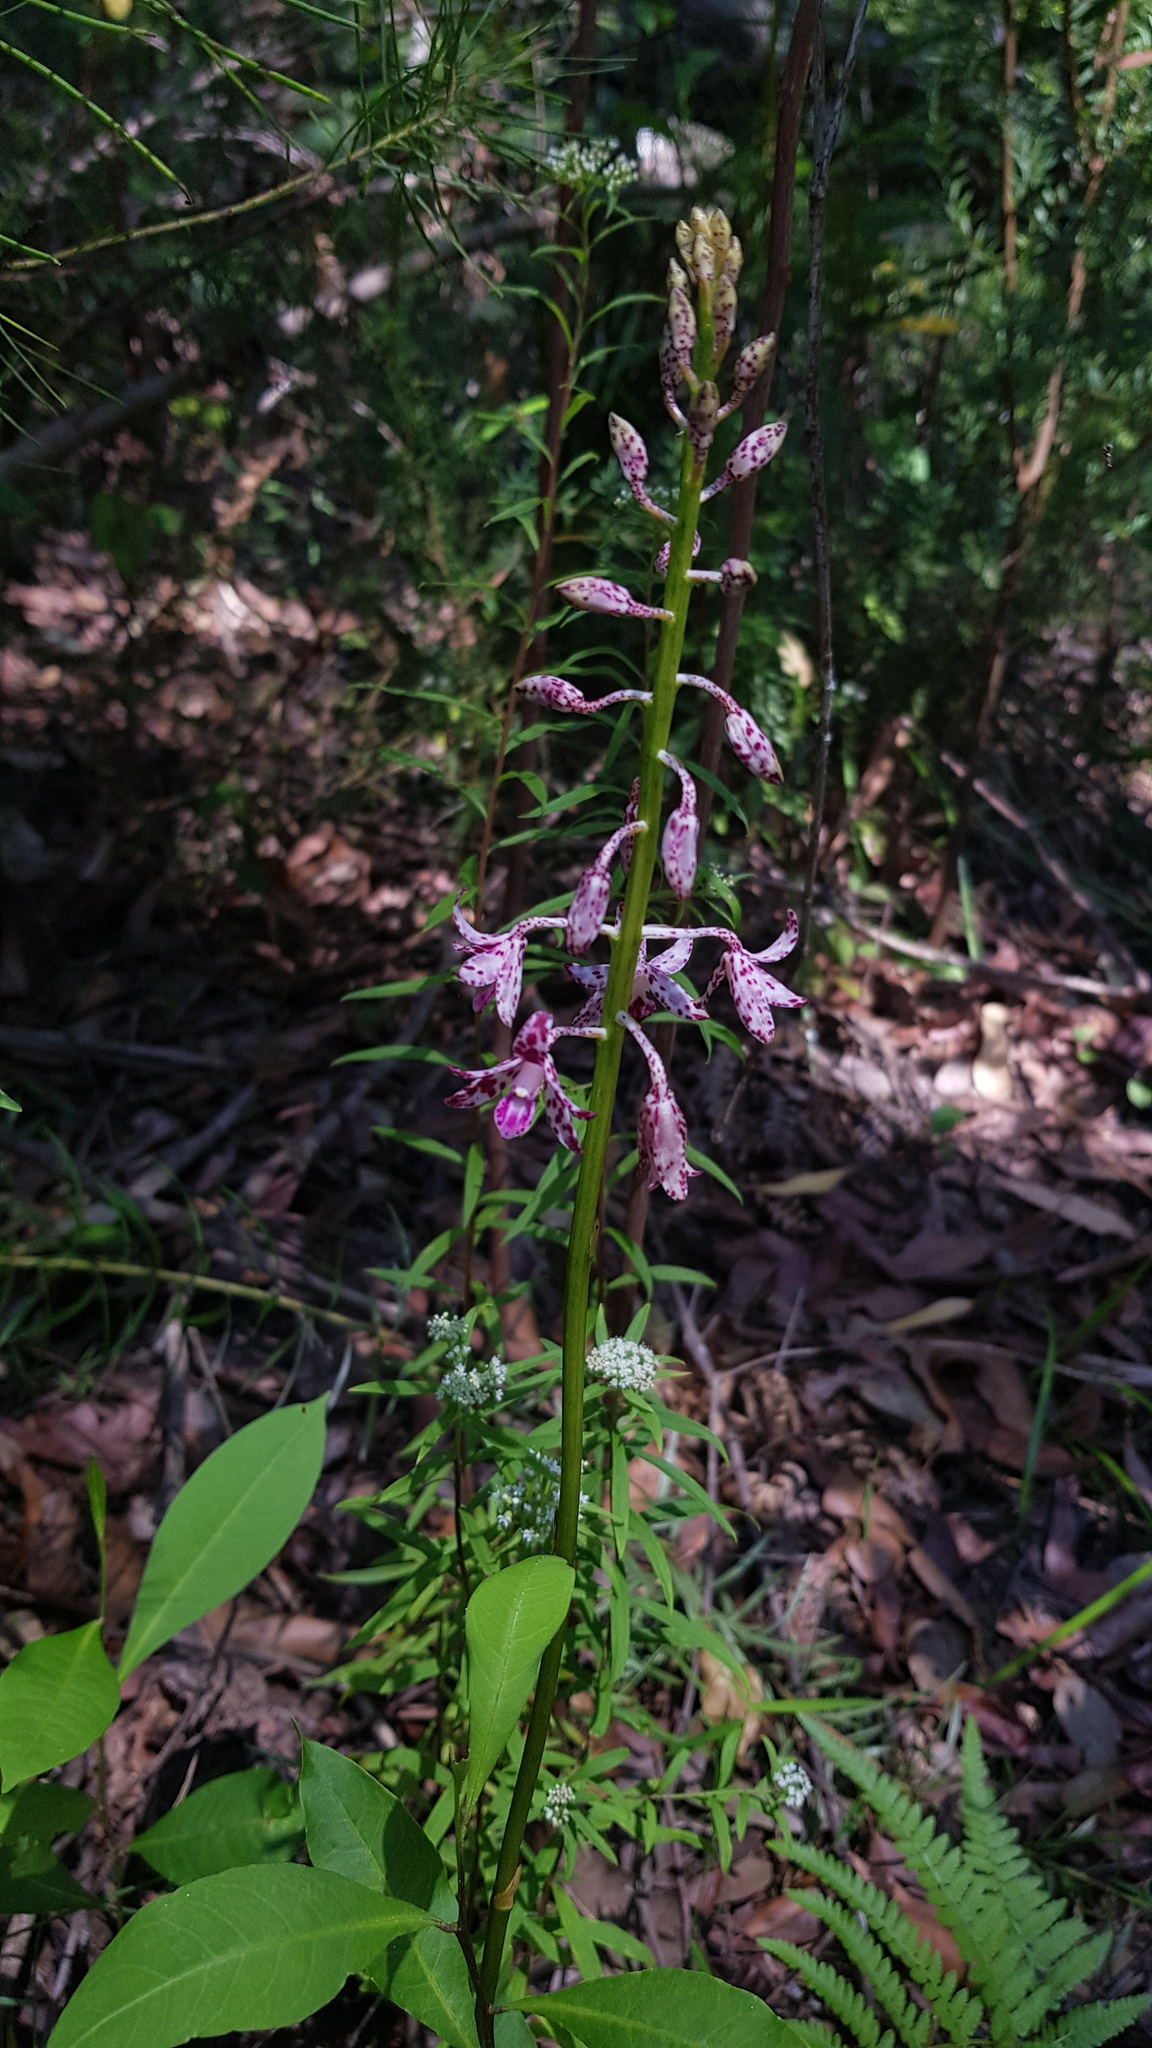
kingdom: Plantae
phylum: Tracheophyta
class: Liliopsida
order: Asparagales
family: Orchidaceae
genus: Dipodium
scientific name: Dipodium variegatum
